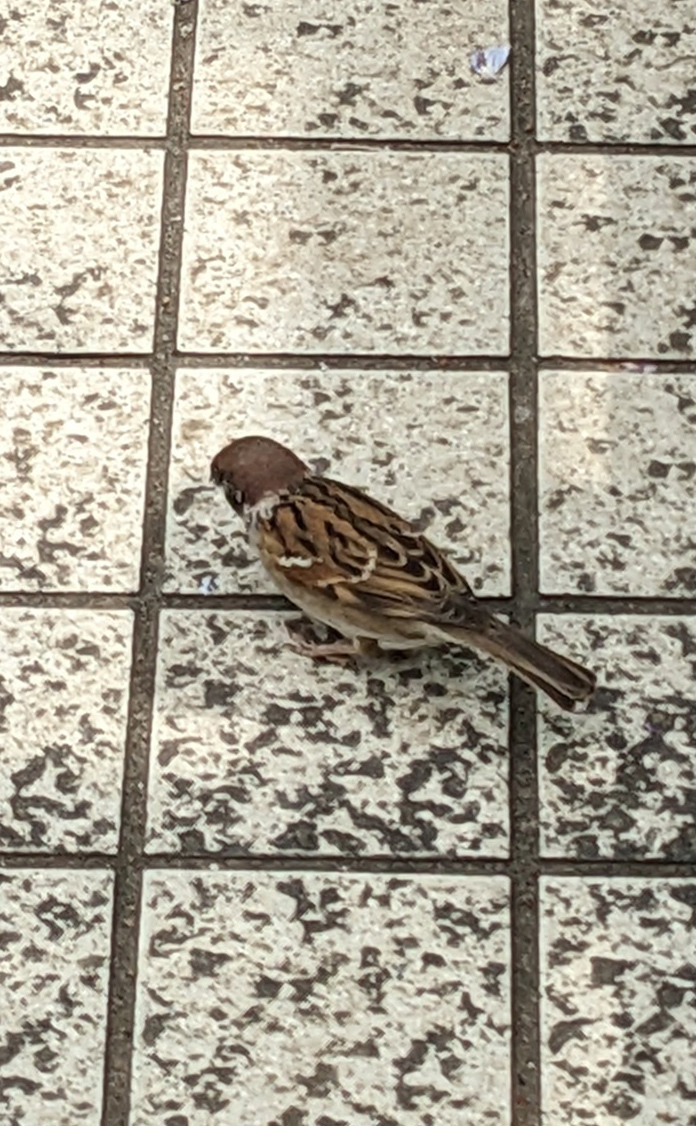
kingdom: Animalia
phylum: Chordata
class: Aves
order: Passeriformes
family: Passeridae
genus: Passer
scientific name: Passer montanus
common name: Eurasian tree sparrow
